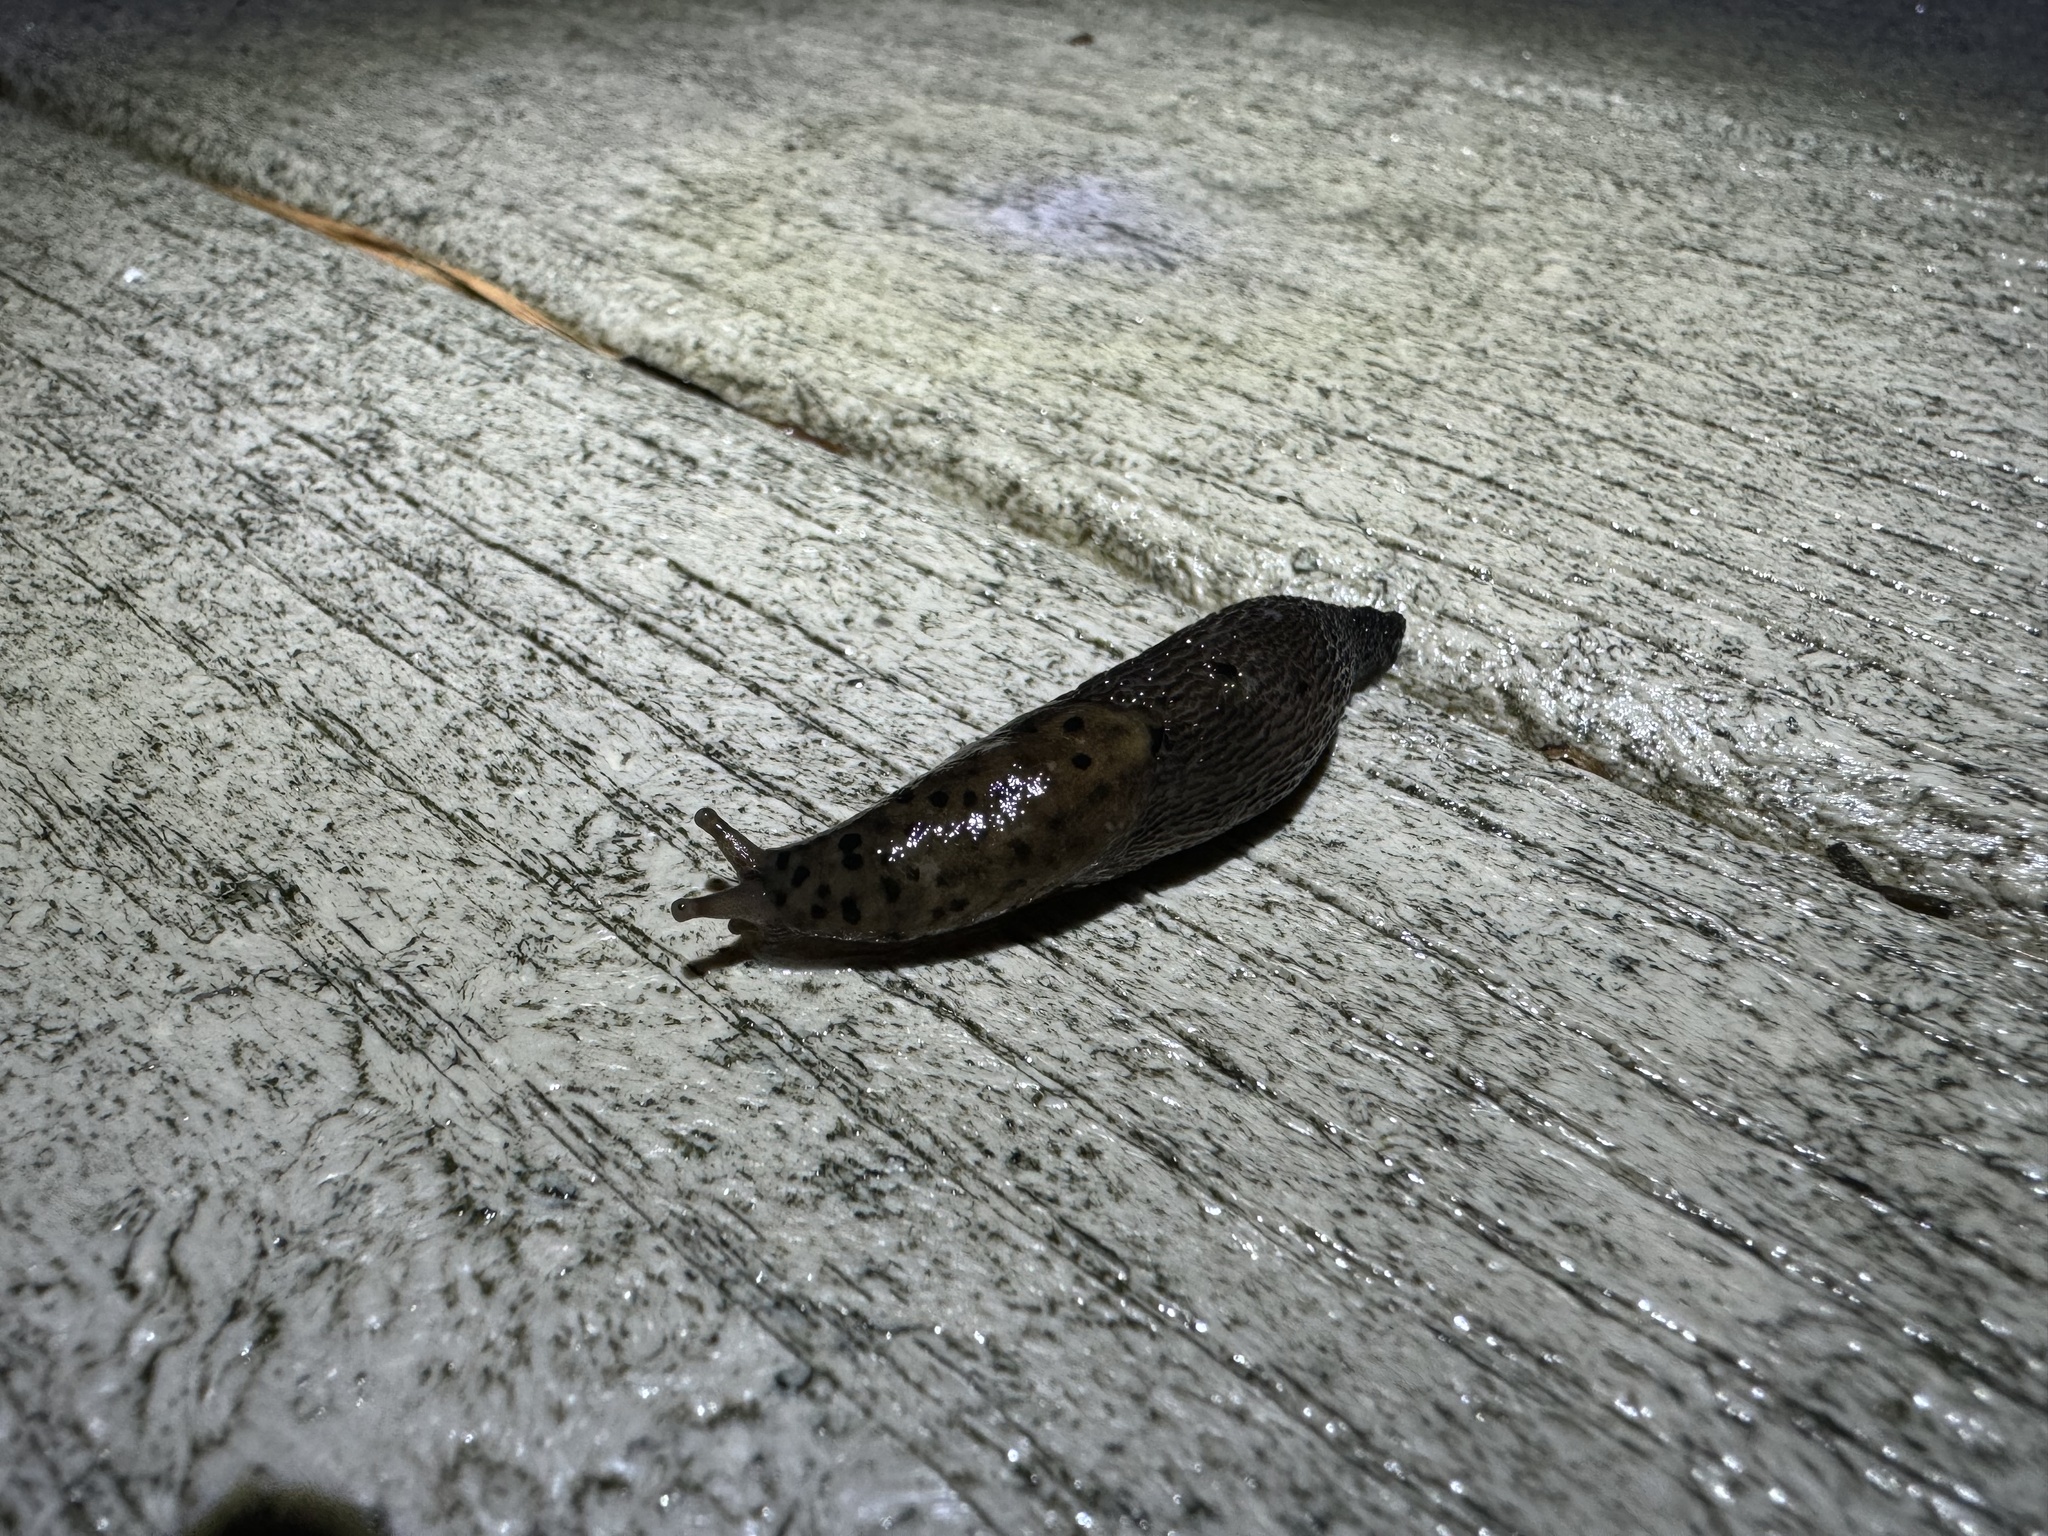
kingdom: Animalia
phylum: Mollusca
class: Gastropoda
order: Stylommatophora
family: Limacidae
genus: Limax
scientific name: Limax maximus
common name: Great grey slug
